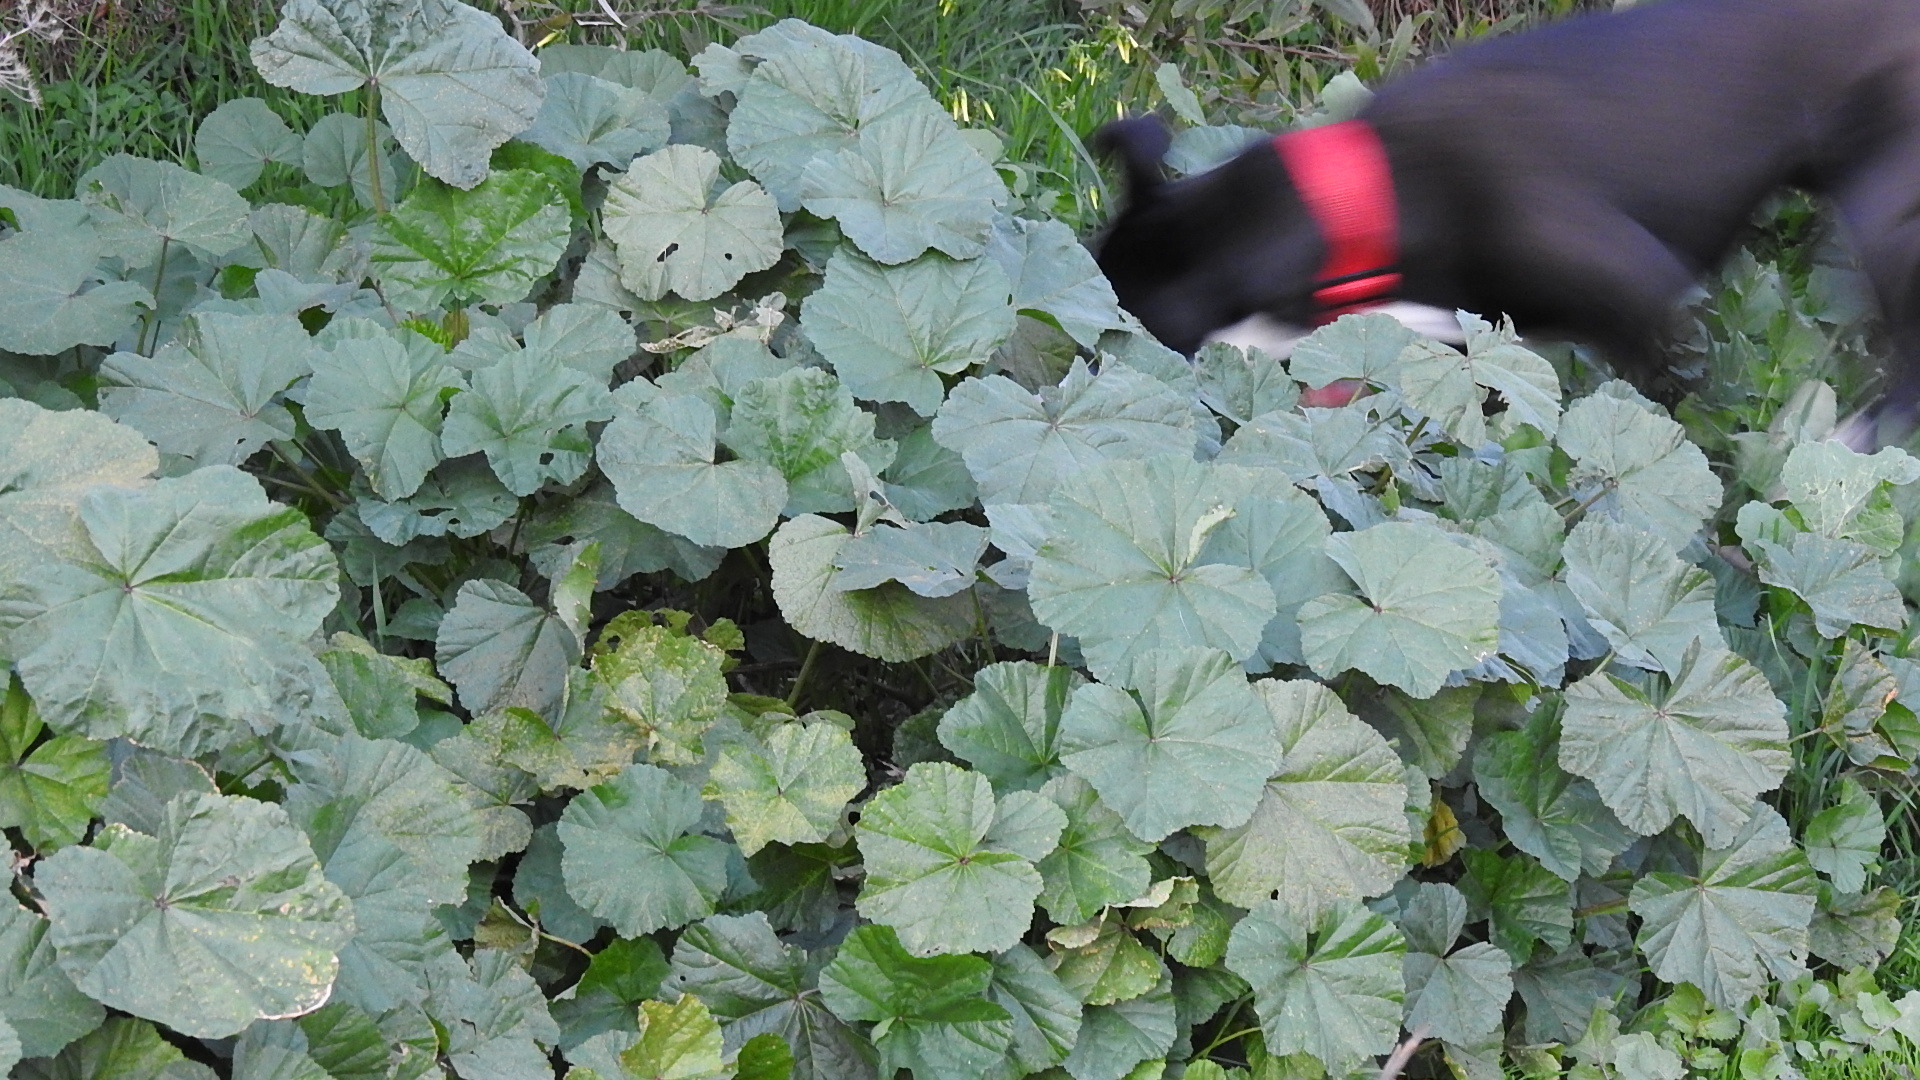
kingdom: Plantae
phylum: Tracheophyta
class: Magnoliopsida
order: Malvales
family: Malvaceae
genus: Malva
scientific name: Malva
